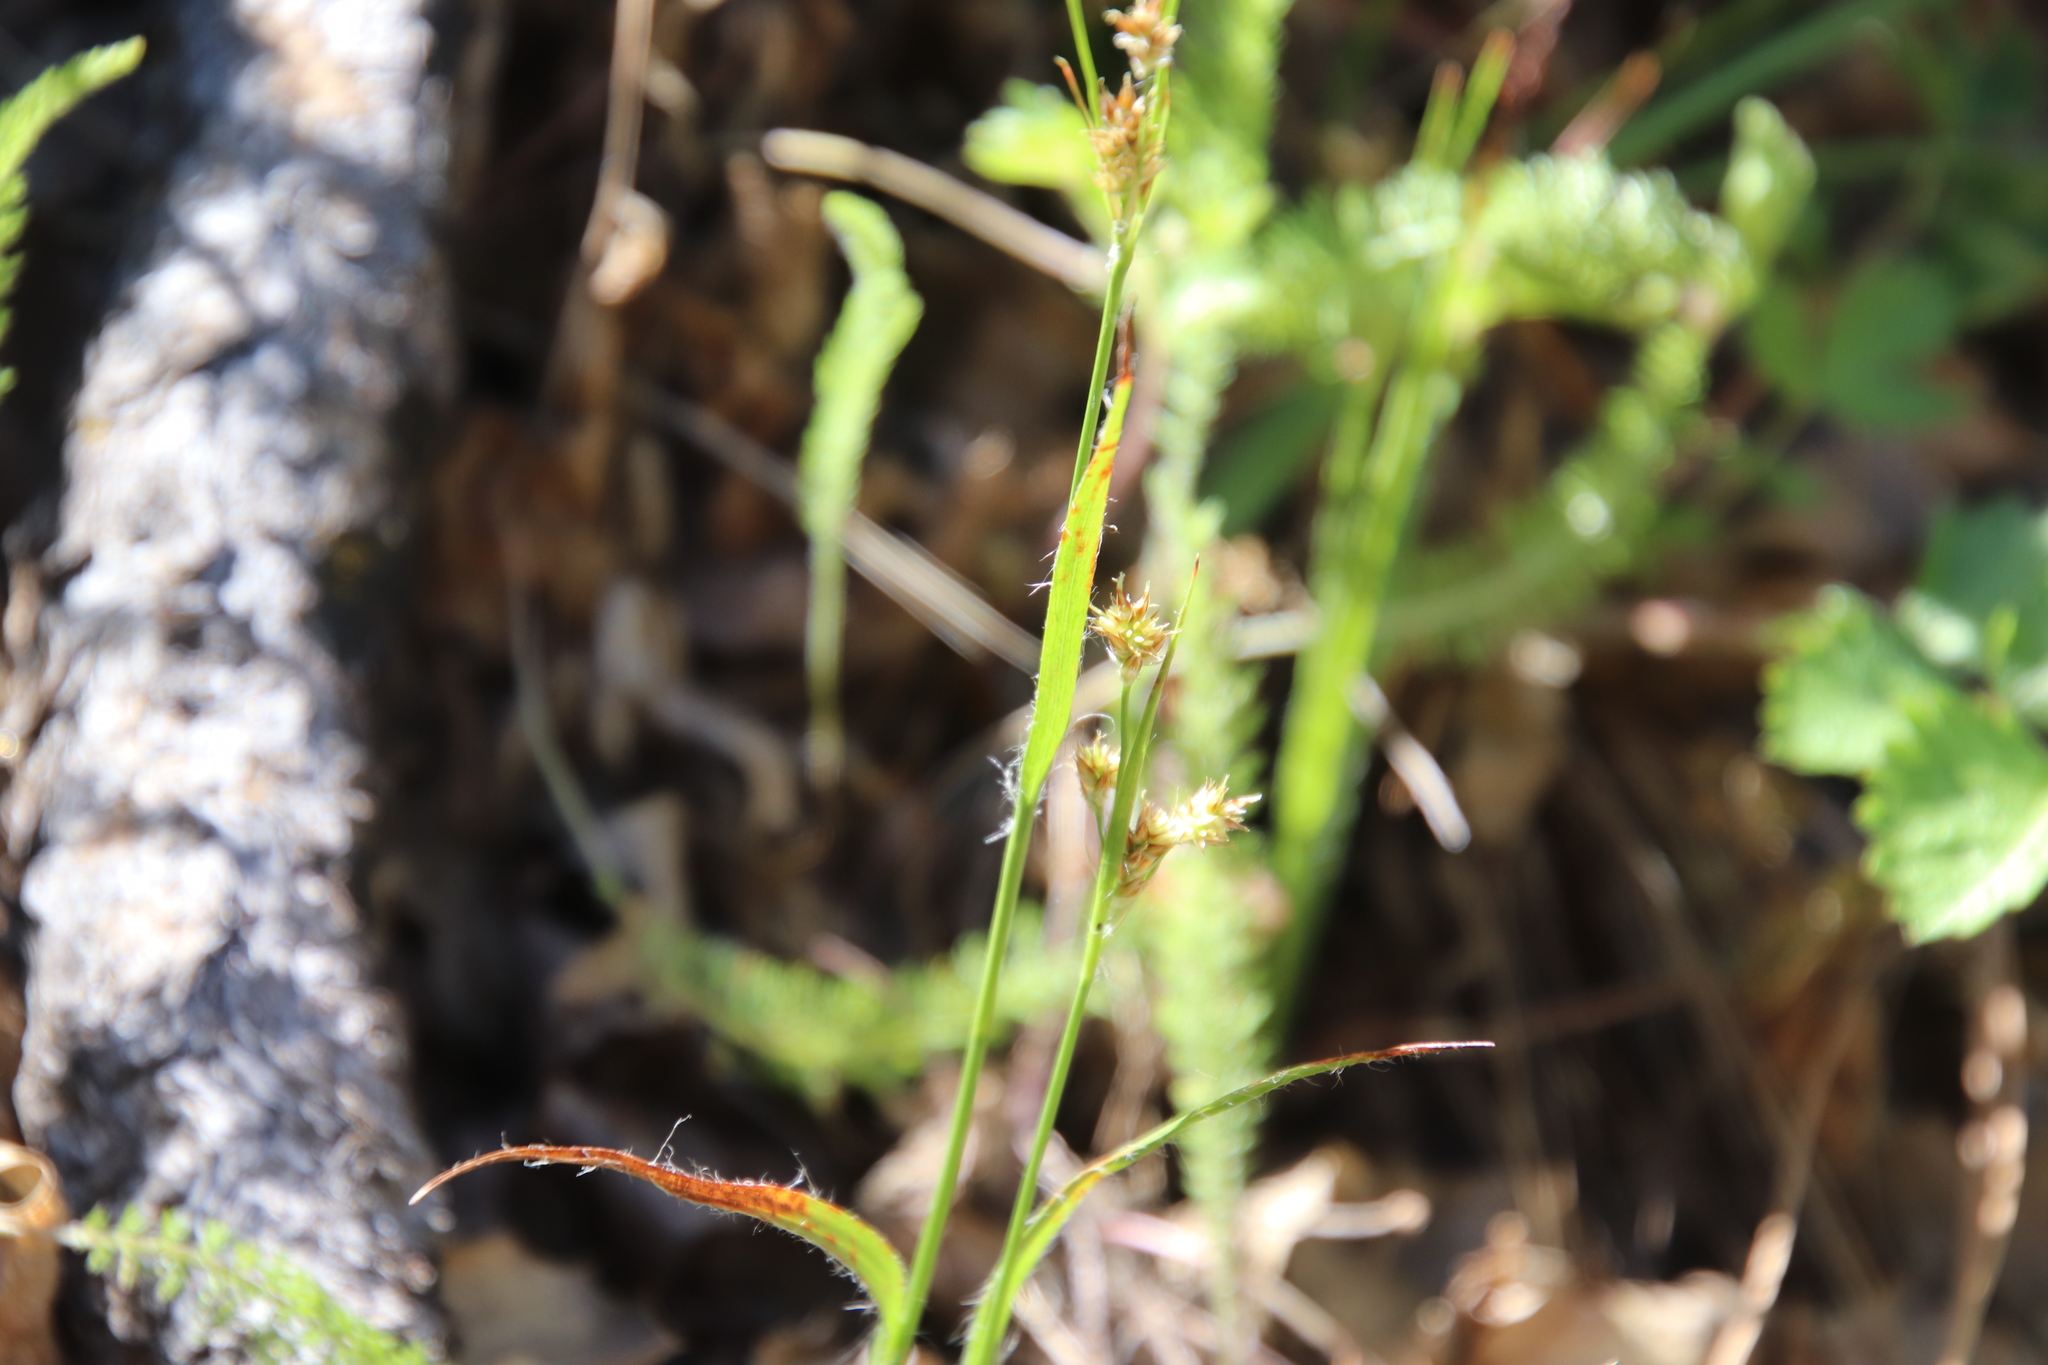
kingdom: Plantae
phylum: Tracheophyta
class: Liliopsida
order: Poales
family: Juncaceae
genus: Luzula
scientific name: Luzula comosa
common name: Pacific woodrush
